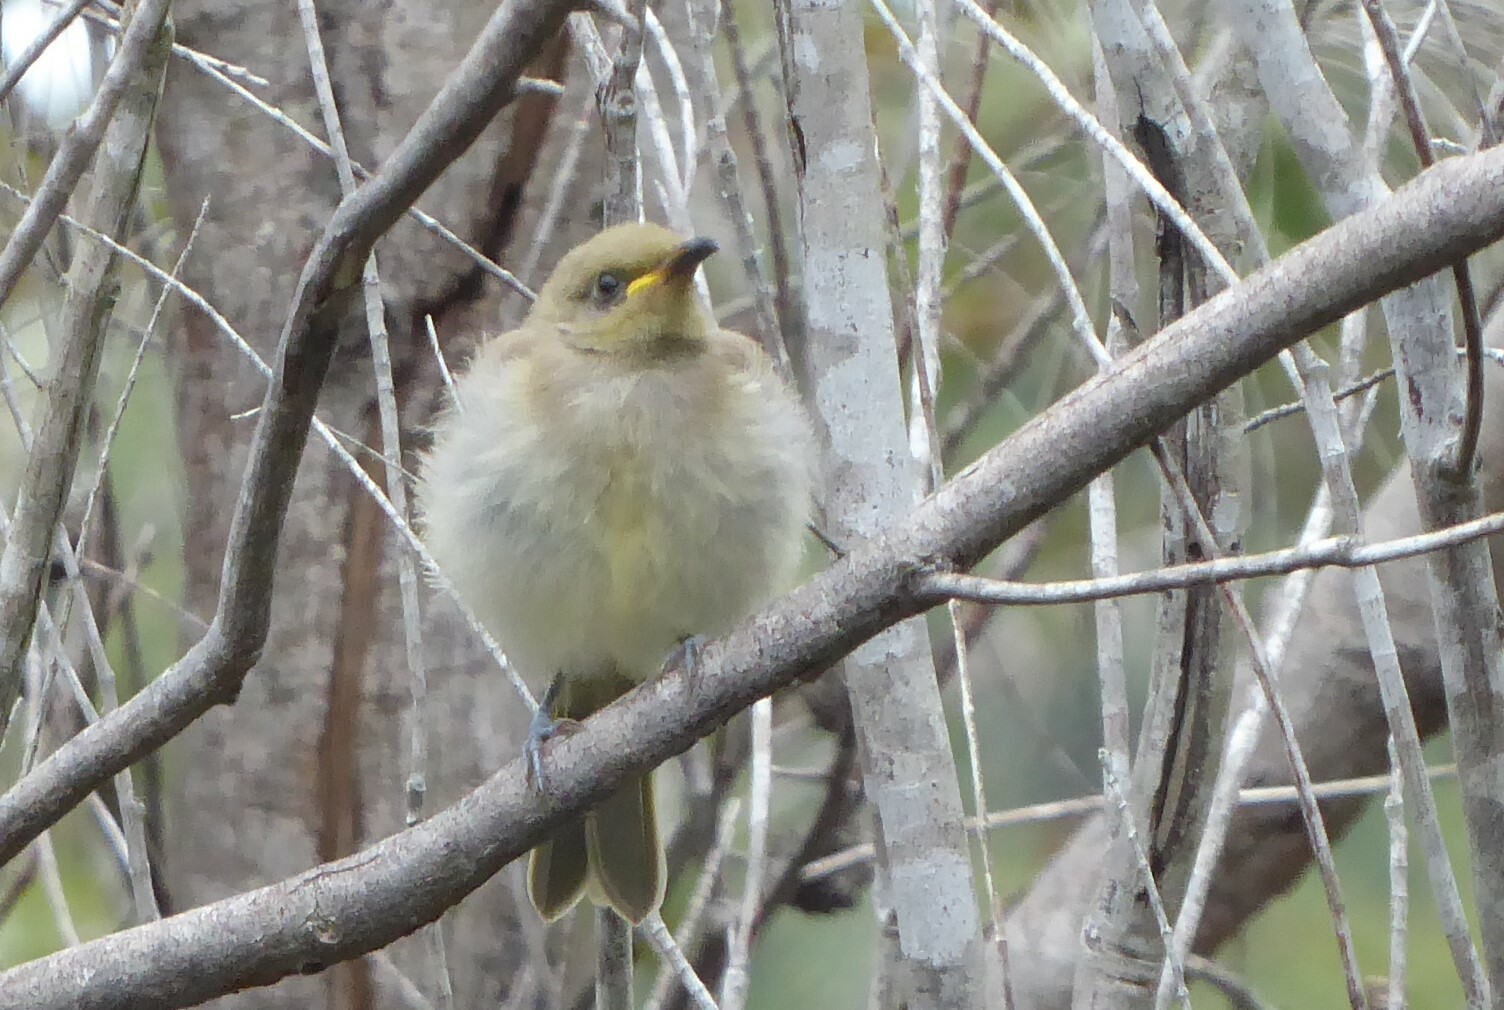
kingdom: Animalia
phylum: Chordata
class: Aves
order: Passeriformes
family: Meliphagidae
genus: Lichmera
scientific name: Lichmera indistincta
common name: Brown honeyeater
